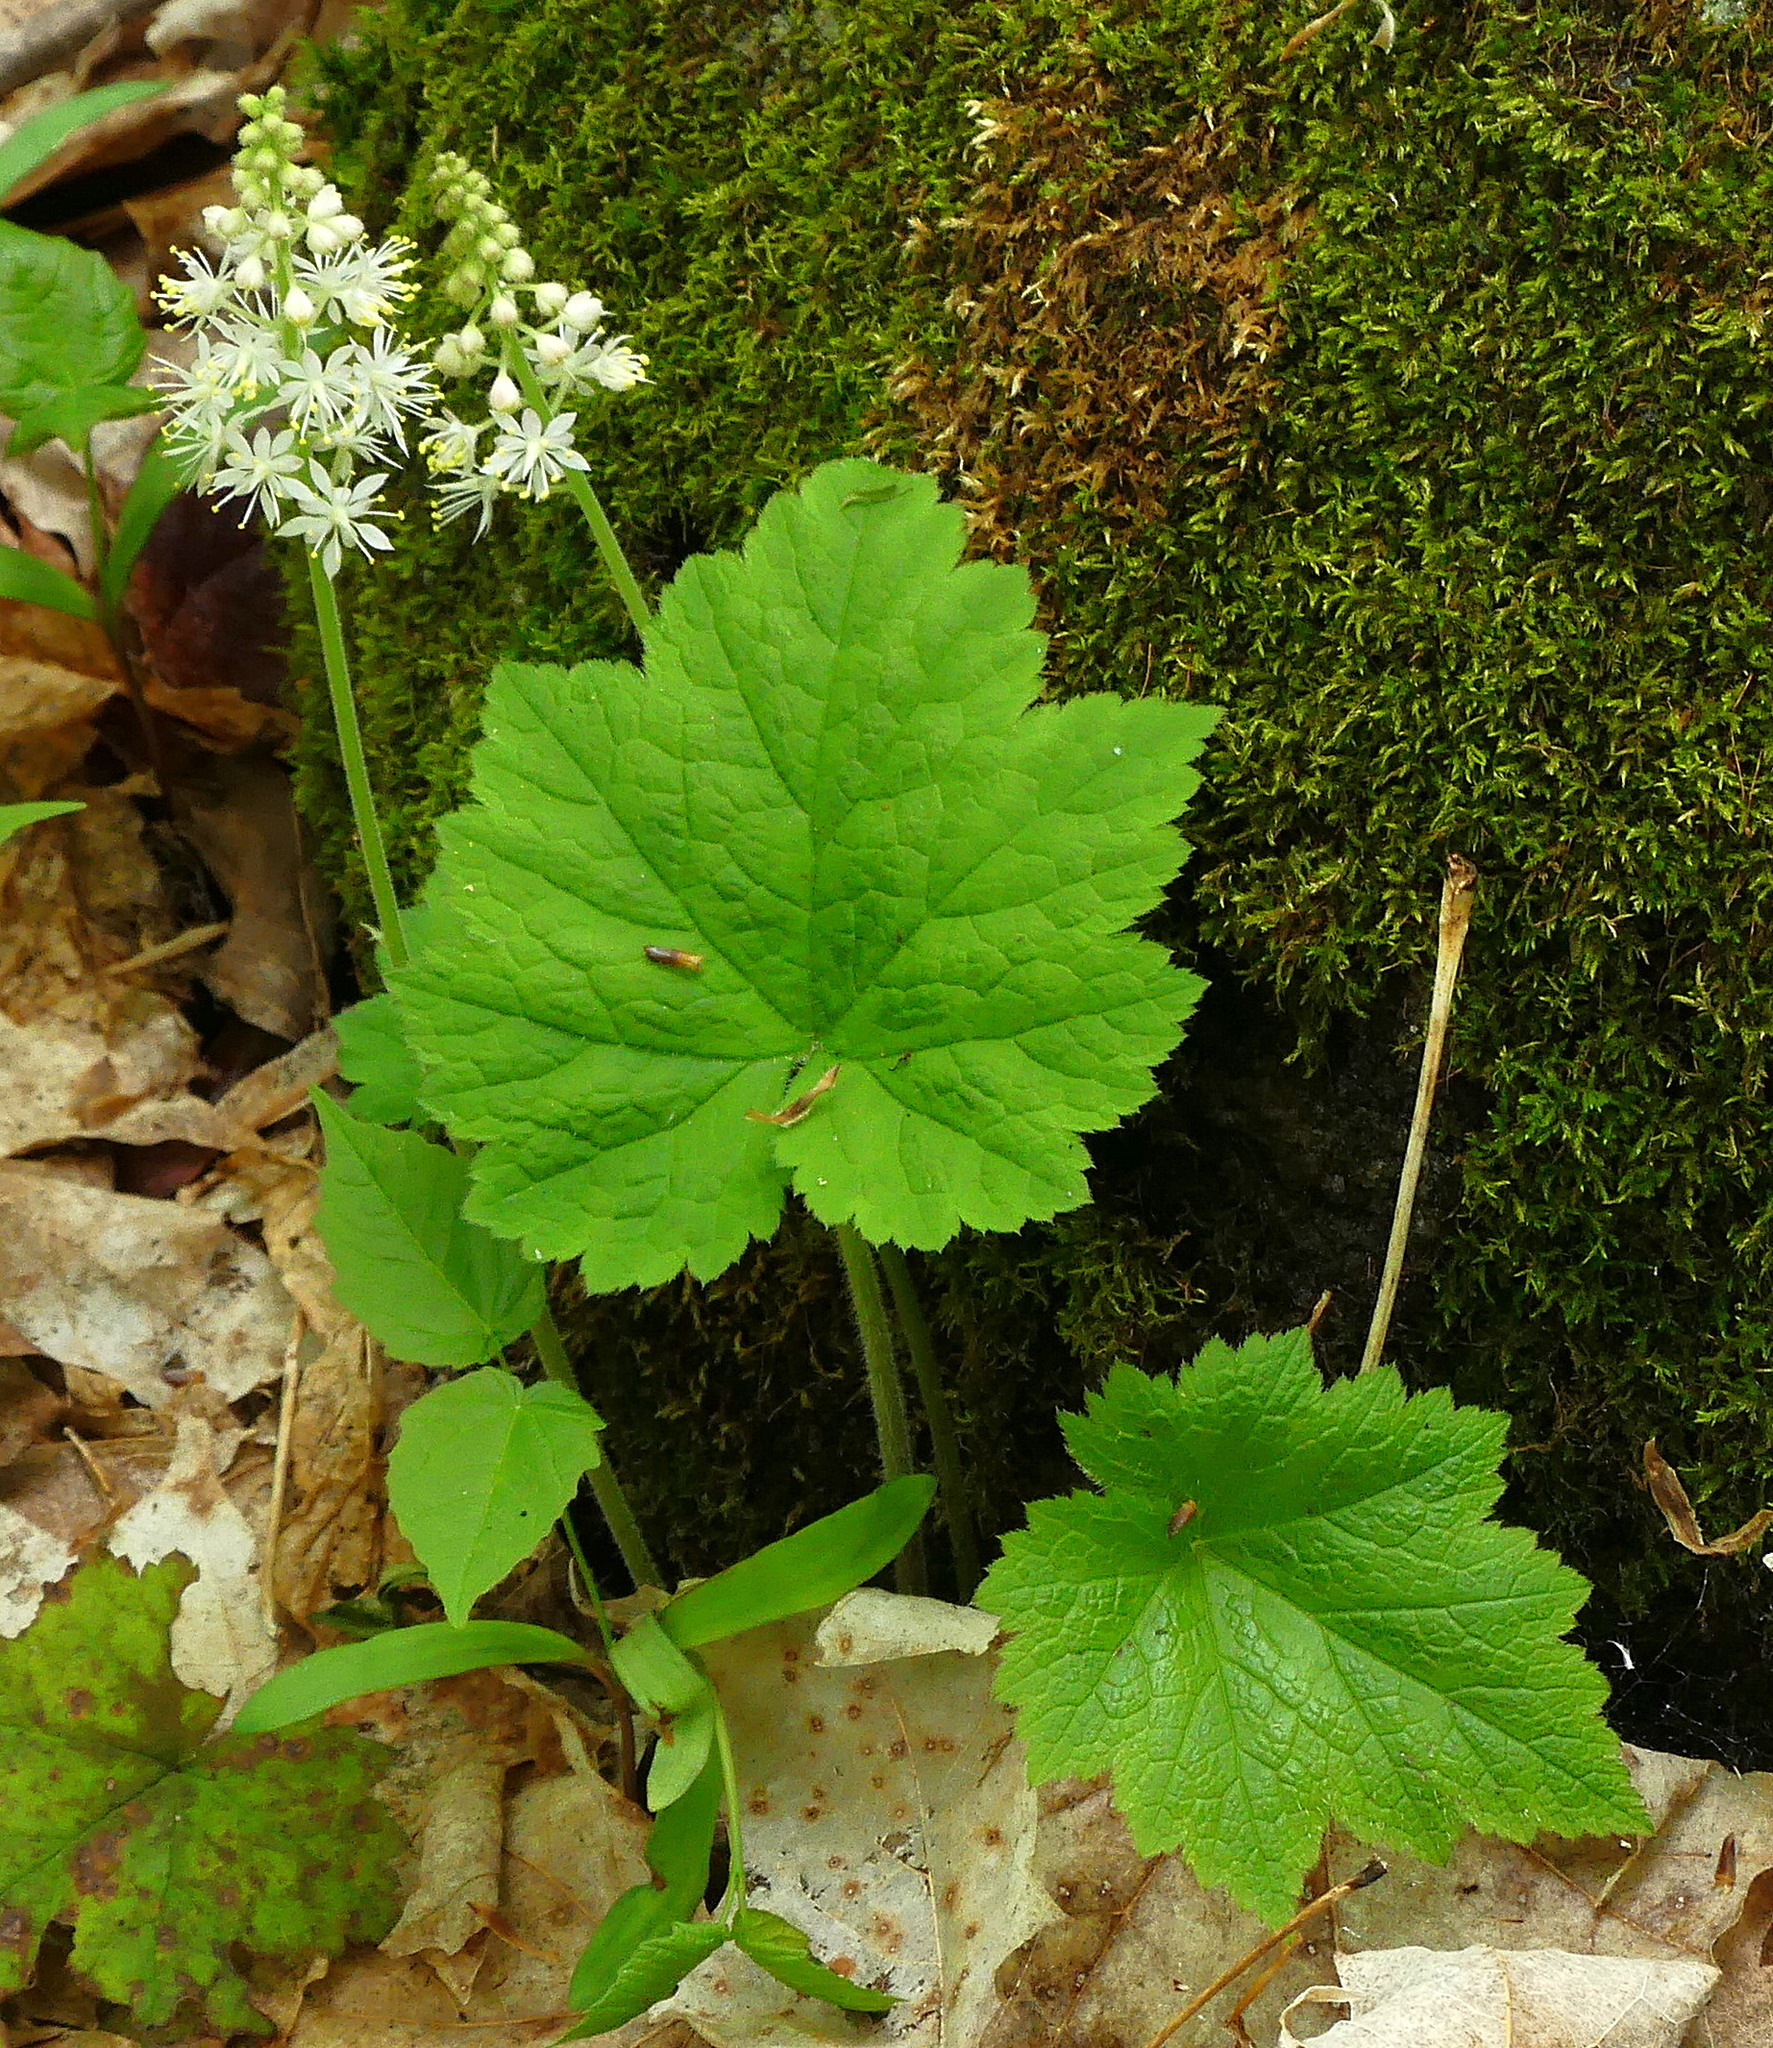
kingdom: Plantae
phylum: Tracheophyta
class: Magnoliopsida
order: Saxifragales
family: Saxifragaceae
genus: Tiarella
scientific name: Tiarella stolonifera
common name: Stoloniferous foamflower
